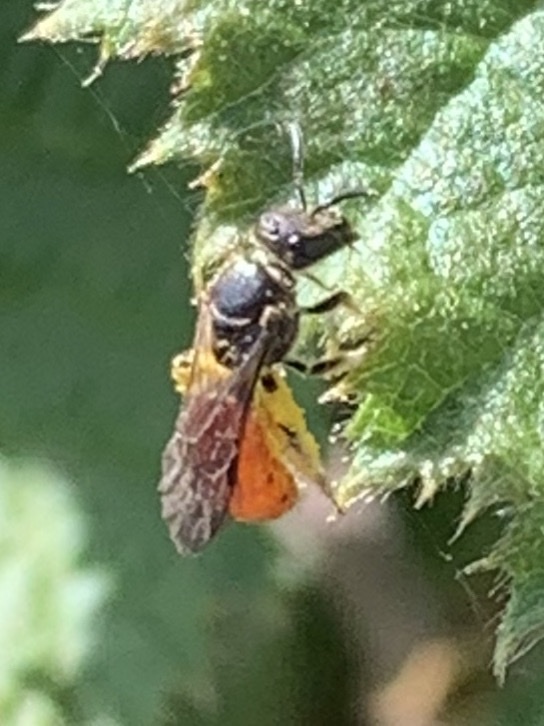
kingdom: Animalia
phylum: Arthropoda
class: Insecta
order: Hymenoptera
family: Halictidae
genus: Lasioglossum
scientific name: Lasioglossum ovaliceps
